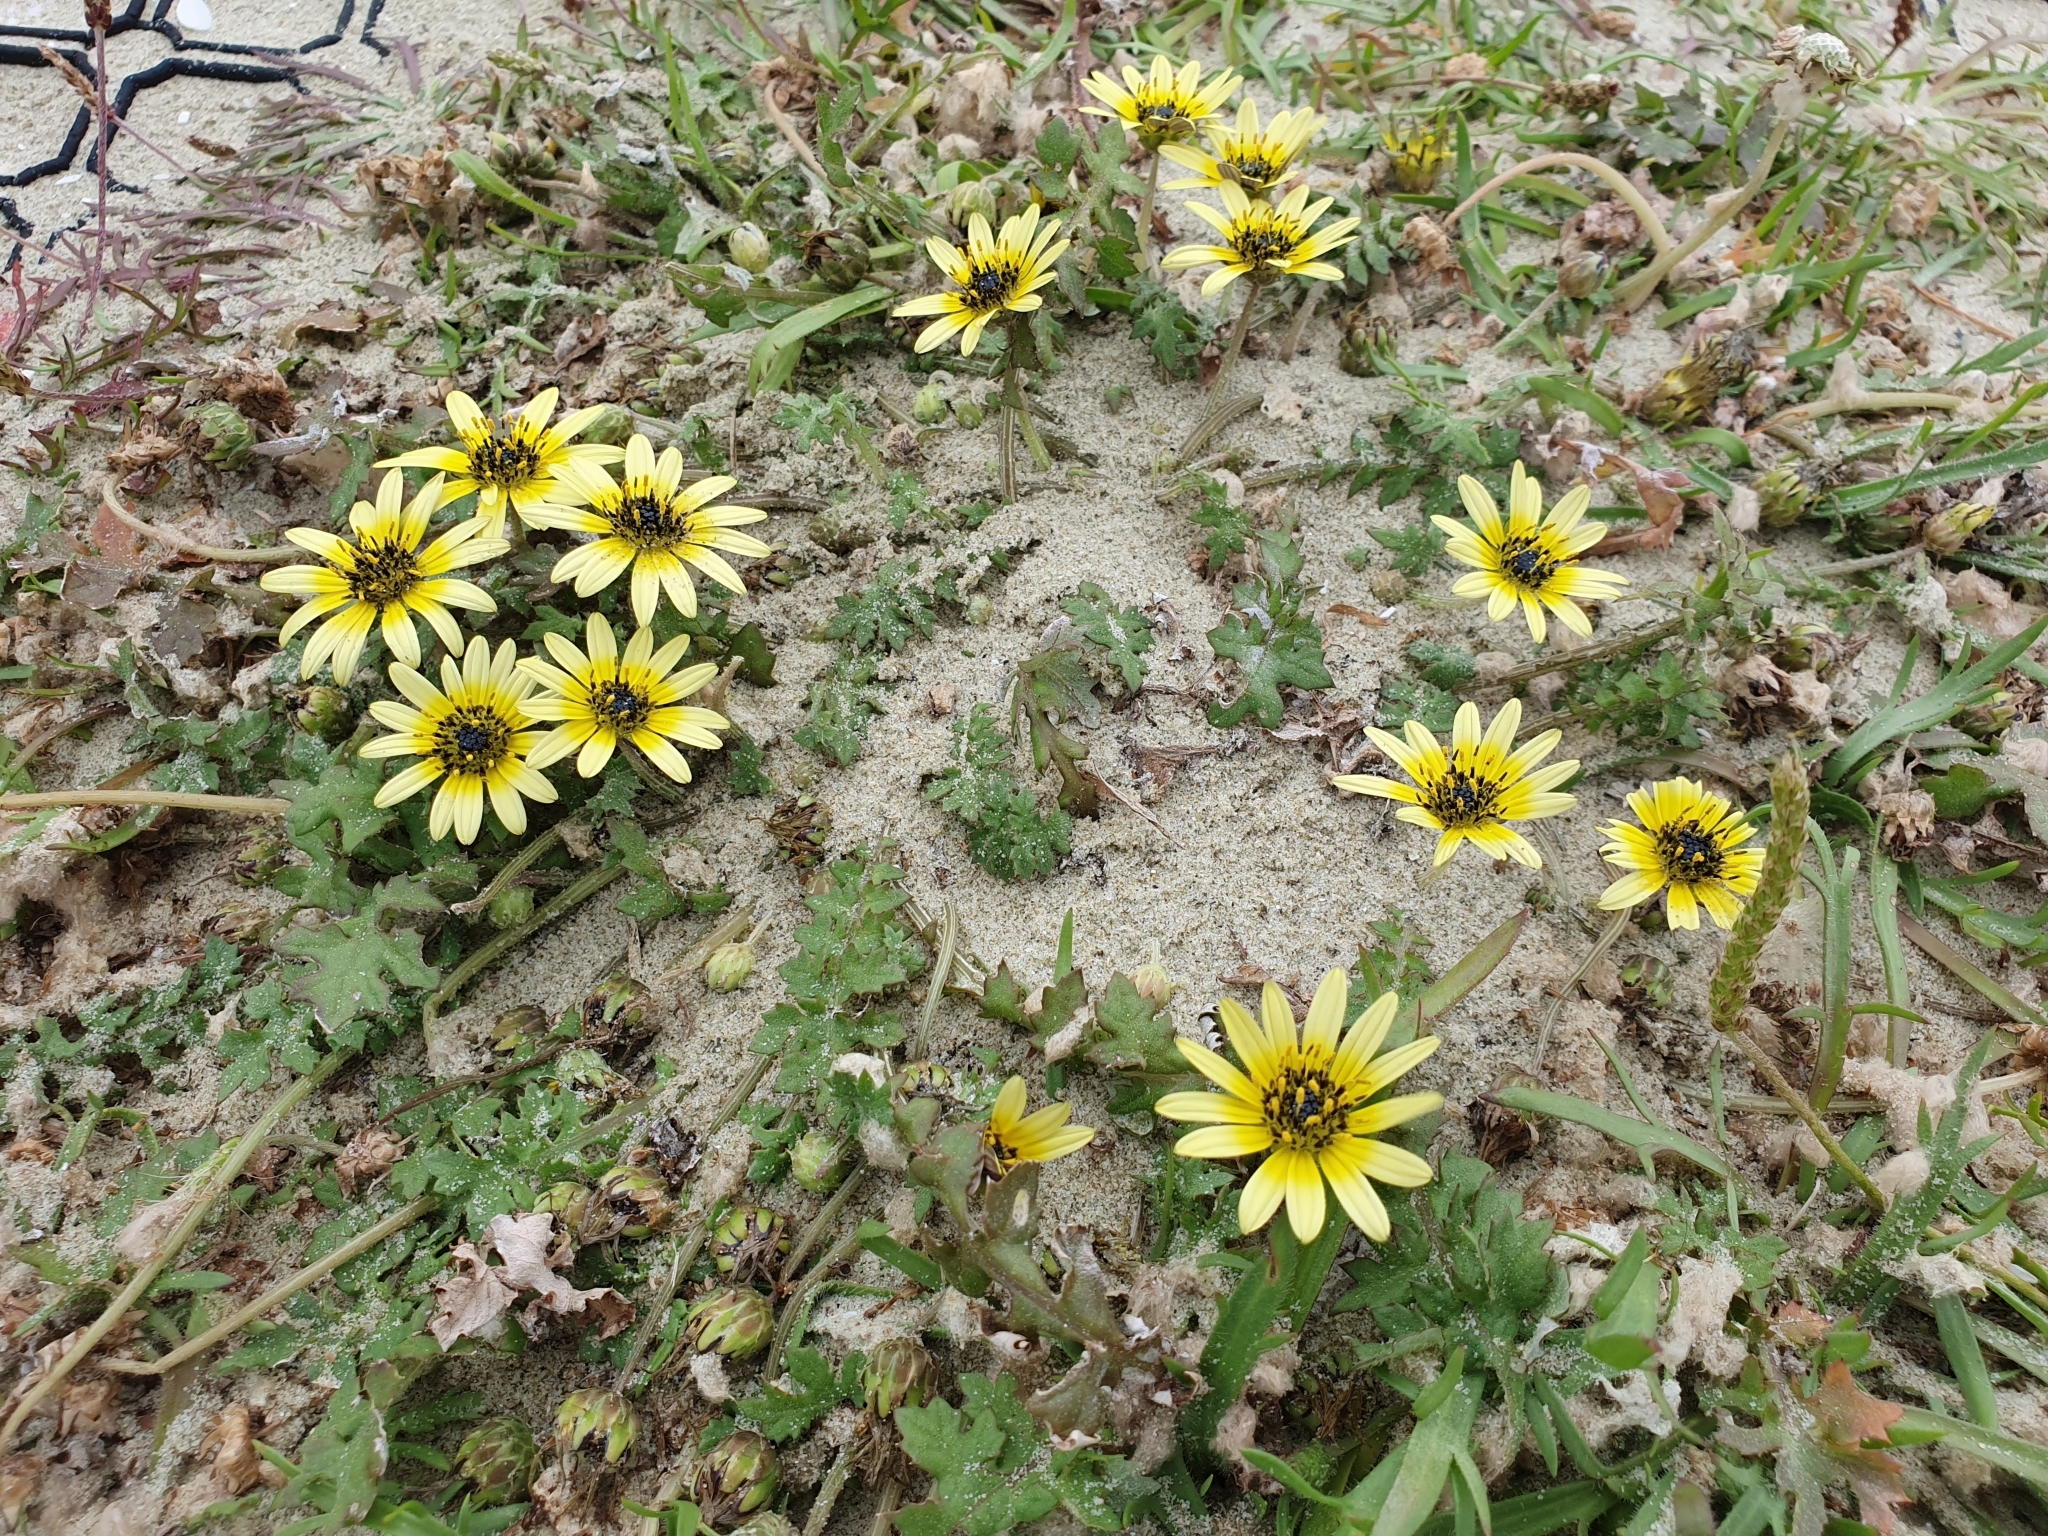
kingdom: Plantae
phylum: Tracheophyta
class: Magnoliopsida
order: Asterales
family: Asteraceae
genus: Arctotheca
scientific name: Arctotheca calendula
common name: Capeweed
